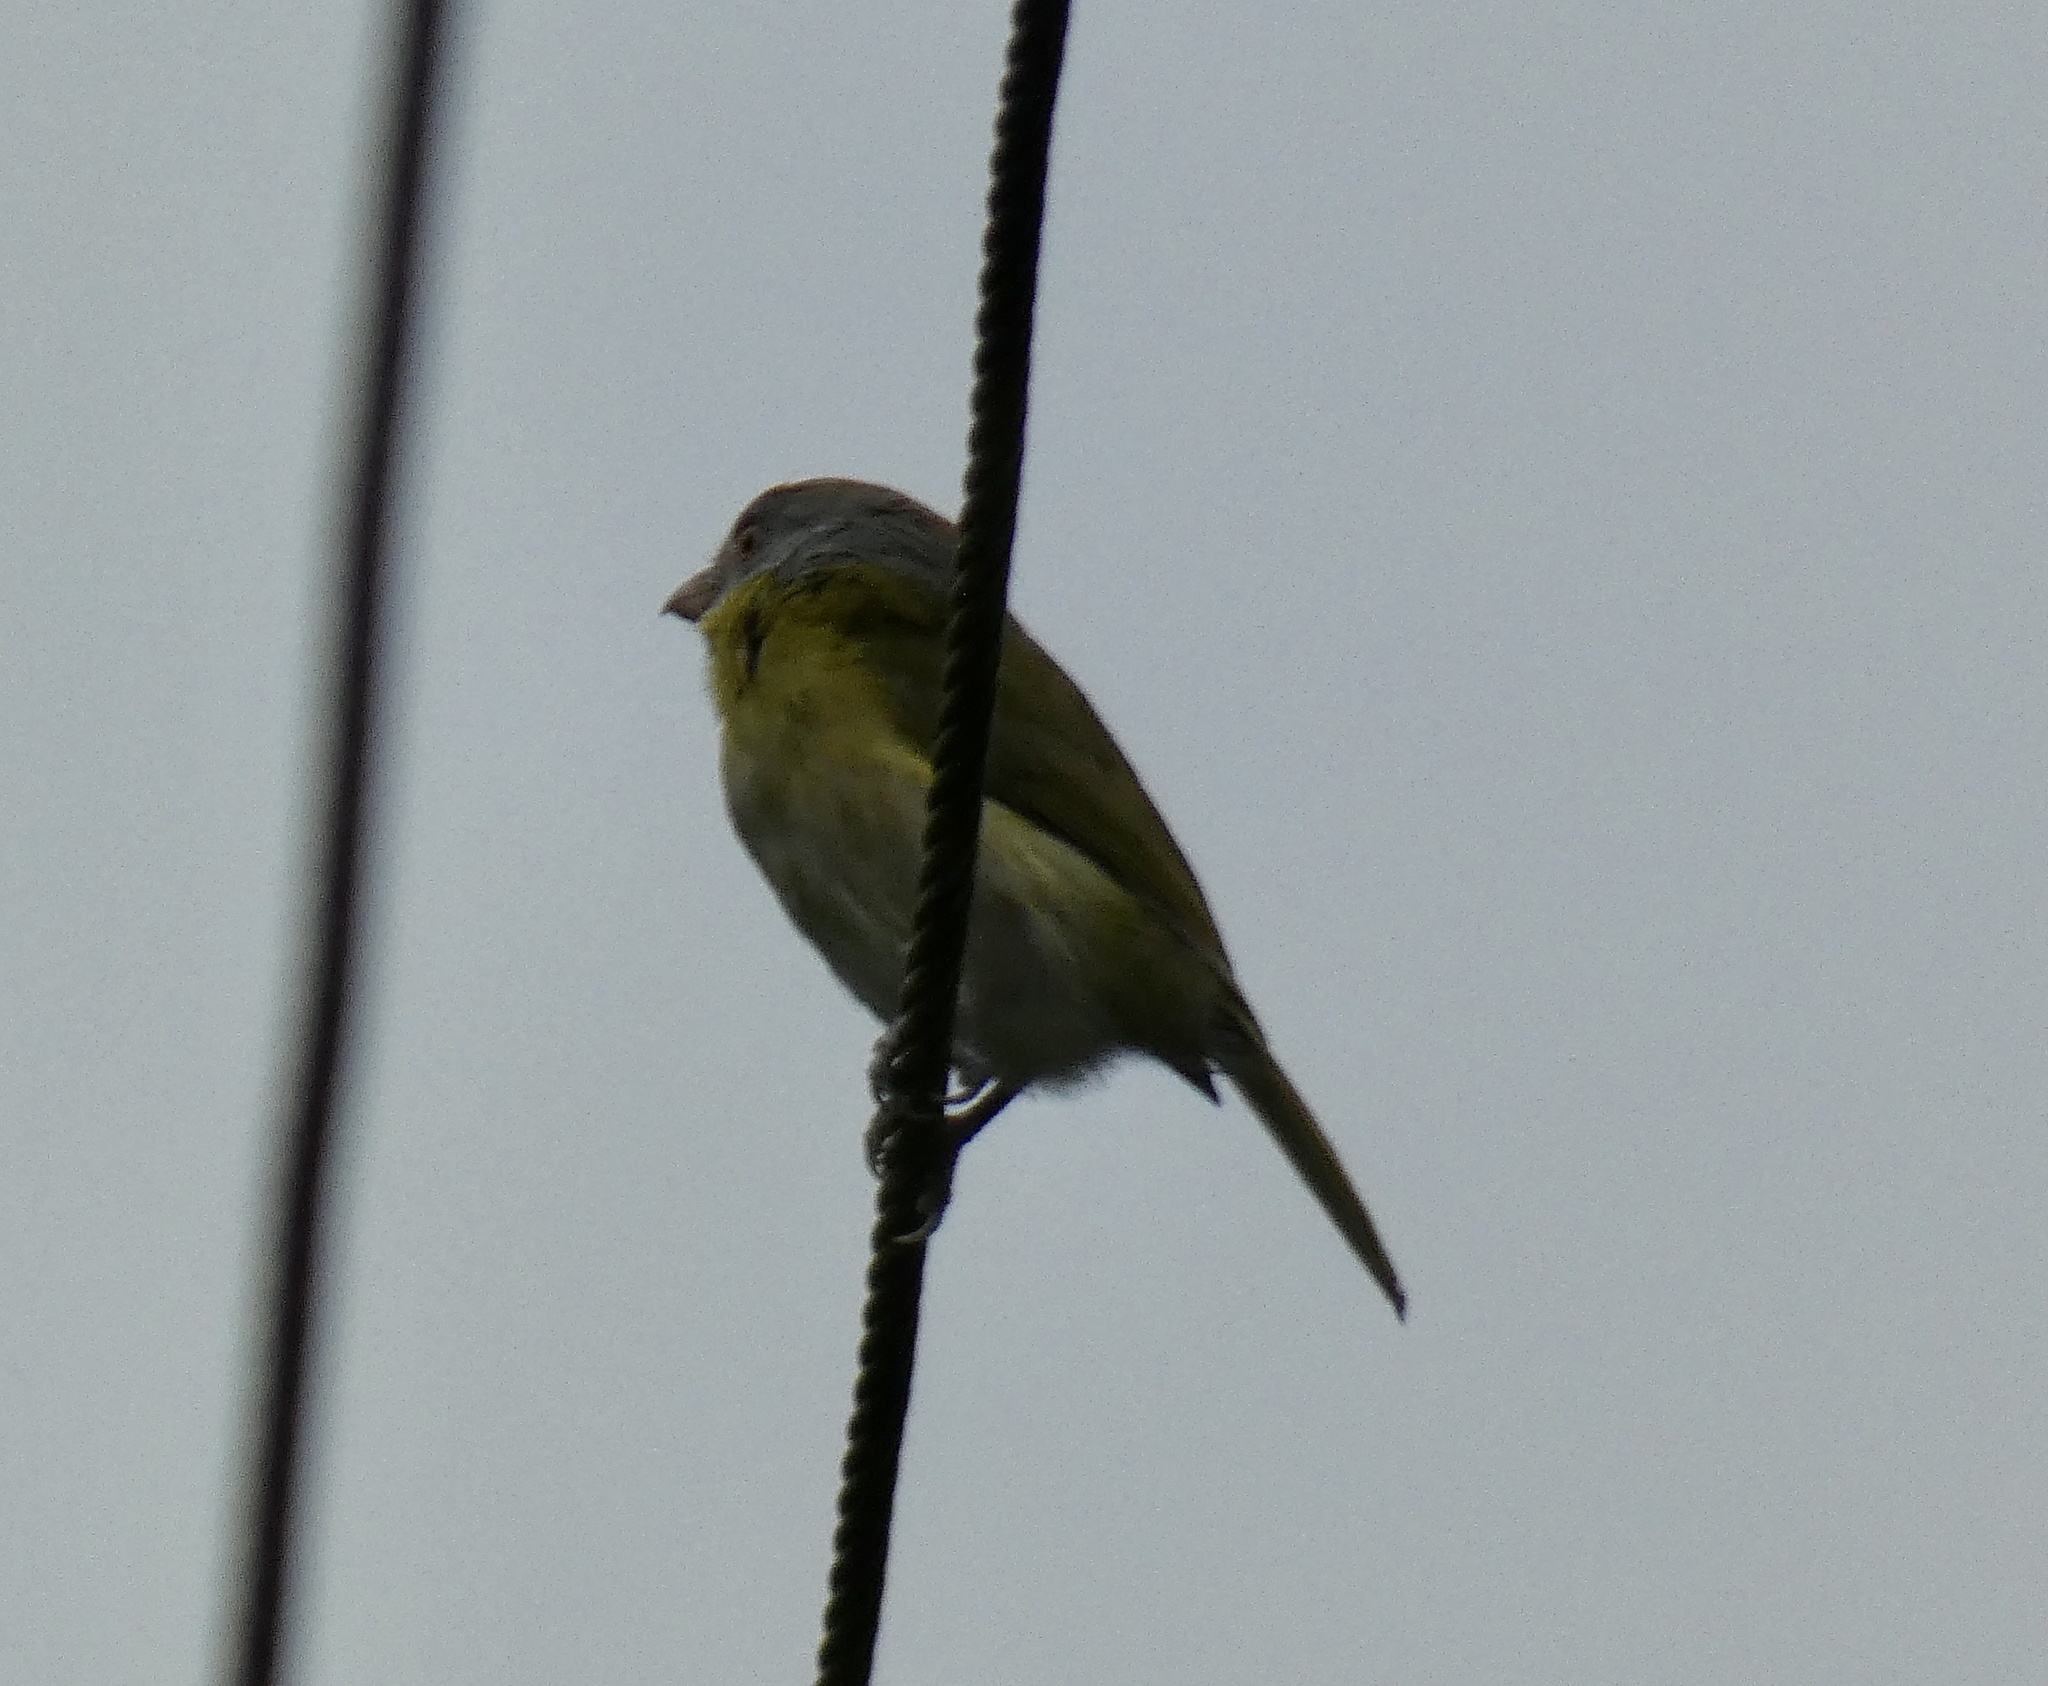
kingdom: Animalia
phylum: Chordata
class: Aves
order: Passeriformes
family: Vireonidae
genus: Cyclarhis
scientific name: Cyclarhis gujanensis
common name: Rufous-browed peppershrike
